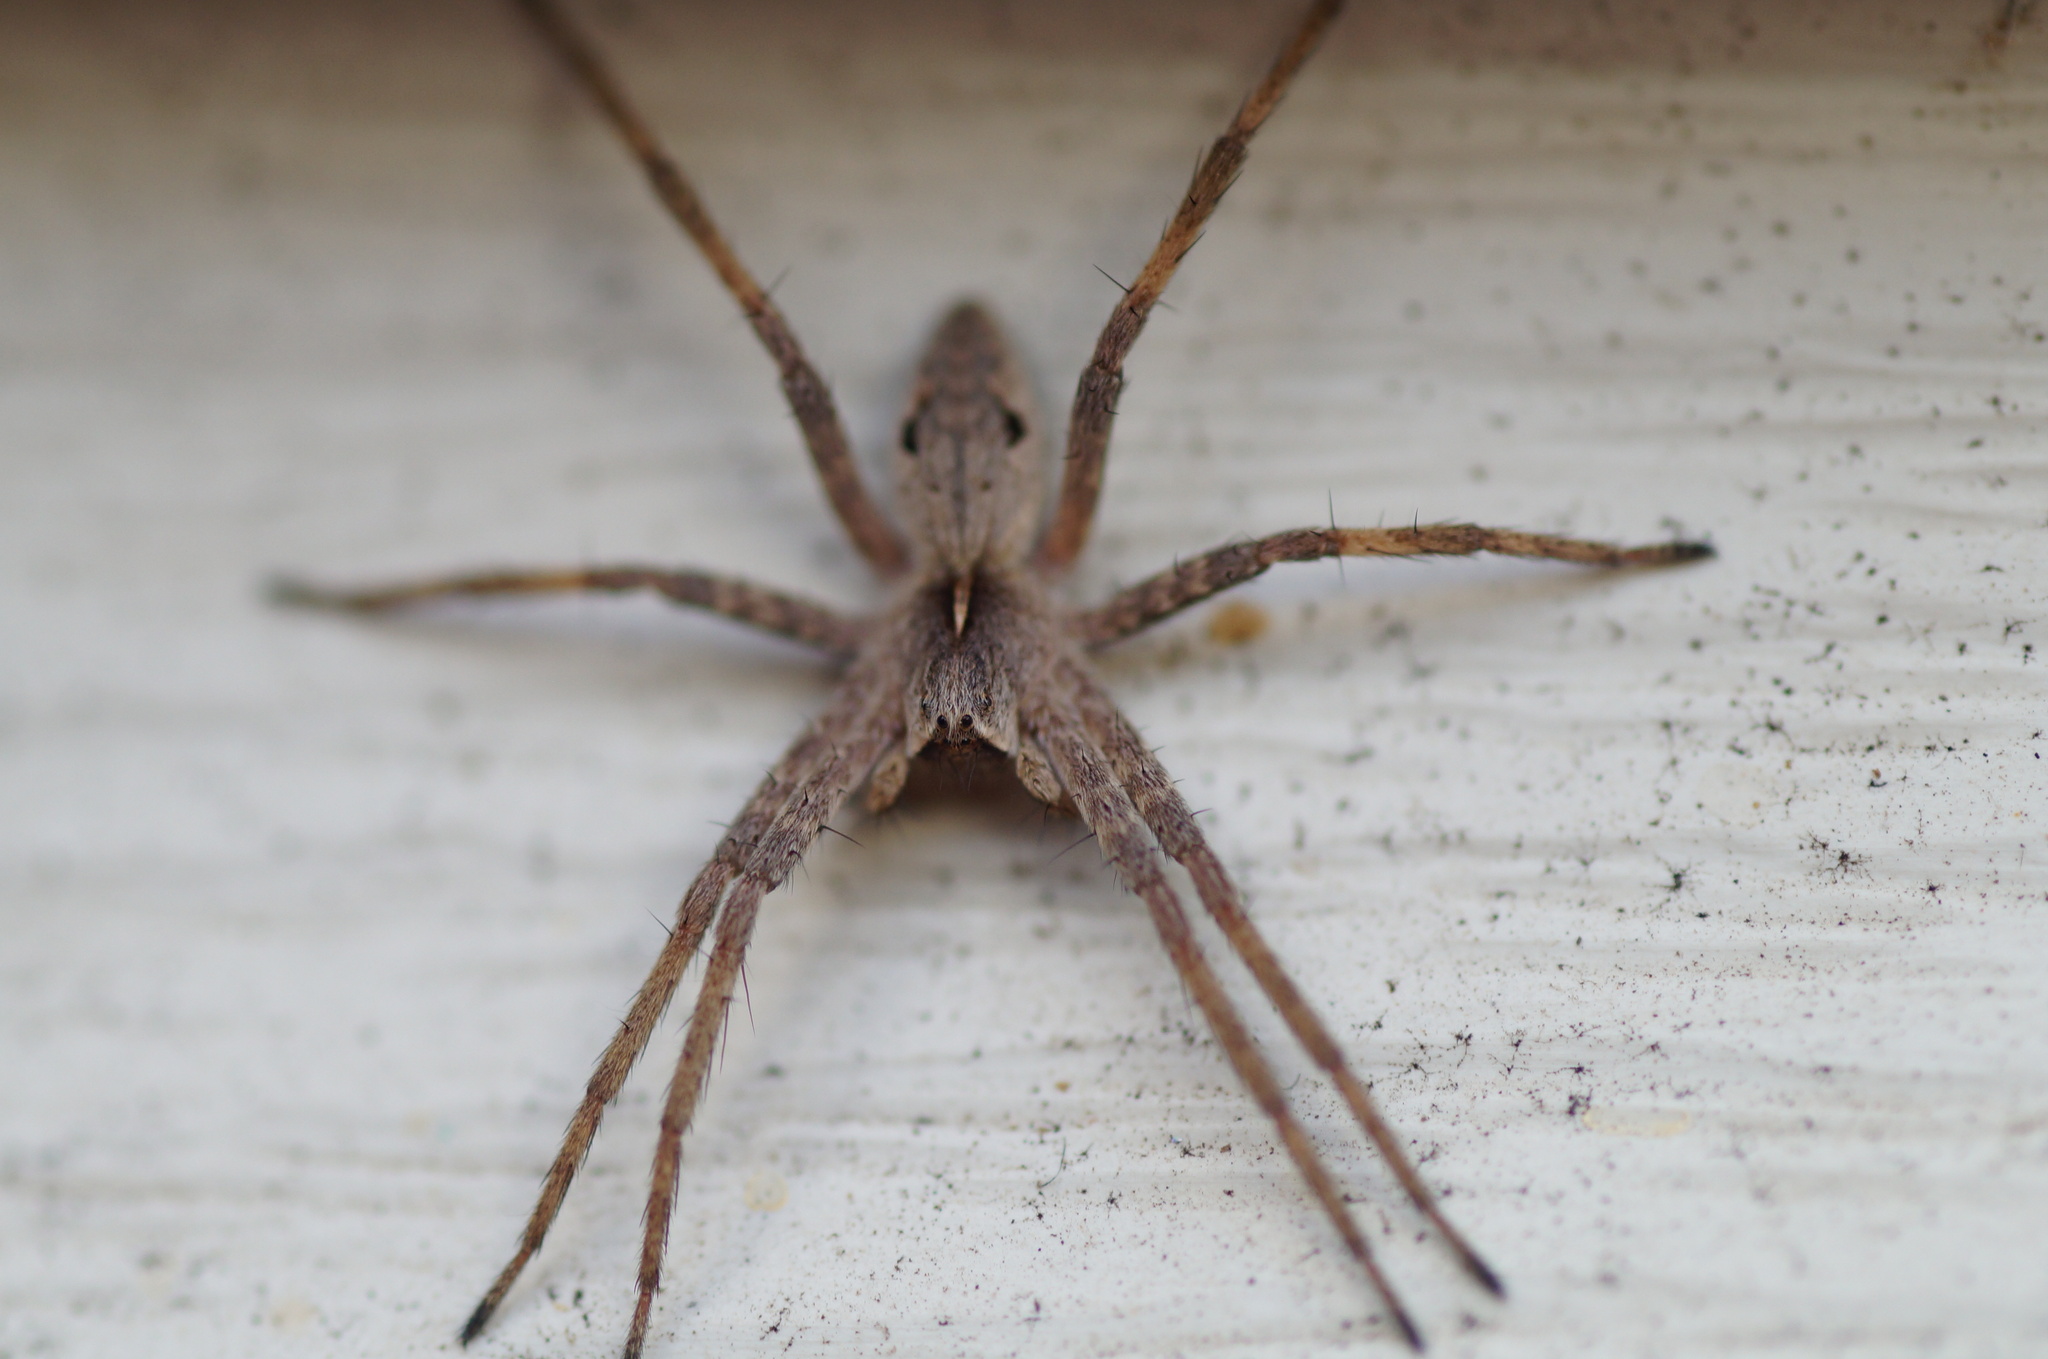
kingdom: Animalia
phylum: Arthropoda
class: Arachnida
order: Araneae
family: Pisauridae
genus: Pisaura
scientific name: Pisaura mirabilis
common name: Tent spider
